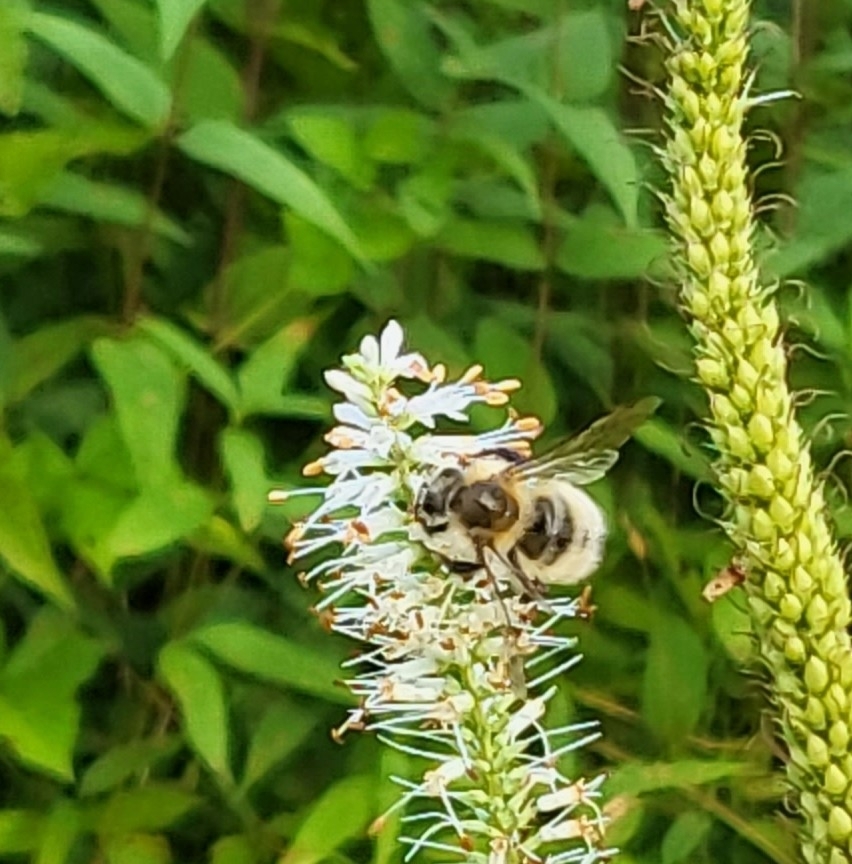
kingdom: Animalia
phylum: Arthropoda
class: Insecta
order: Hymenoptera
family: Apidae
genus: Bombus
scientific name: Bombus perplexus
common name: Confusing bumble bee
